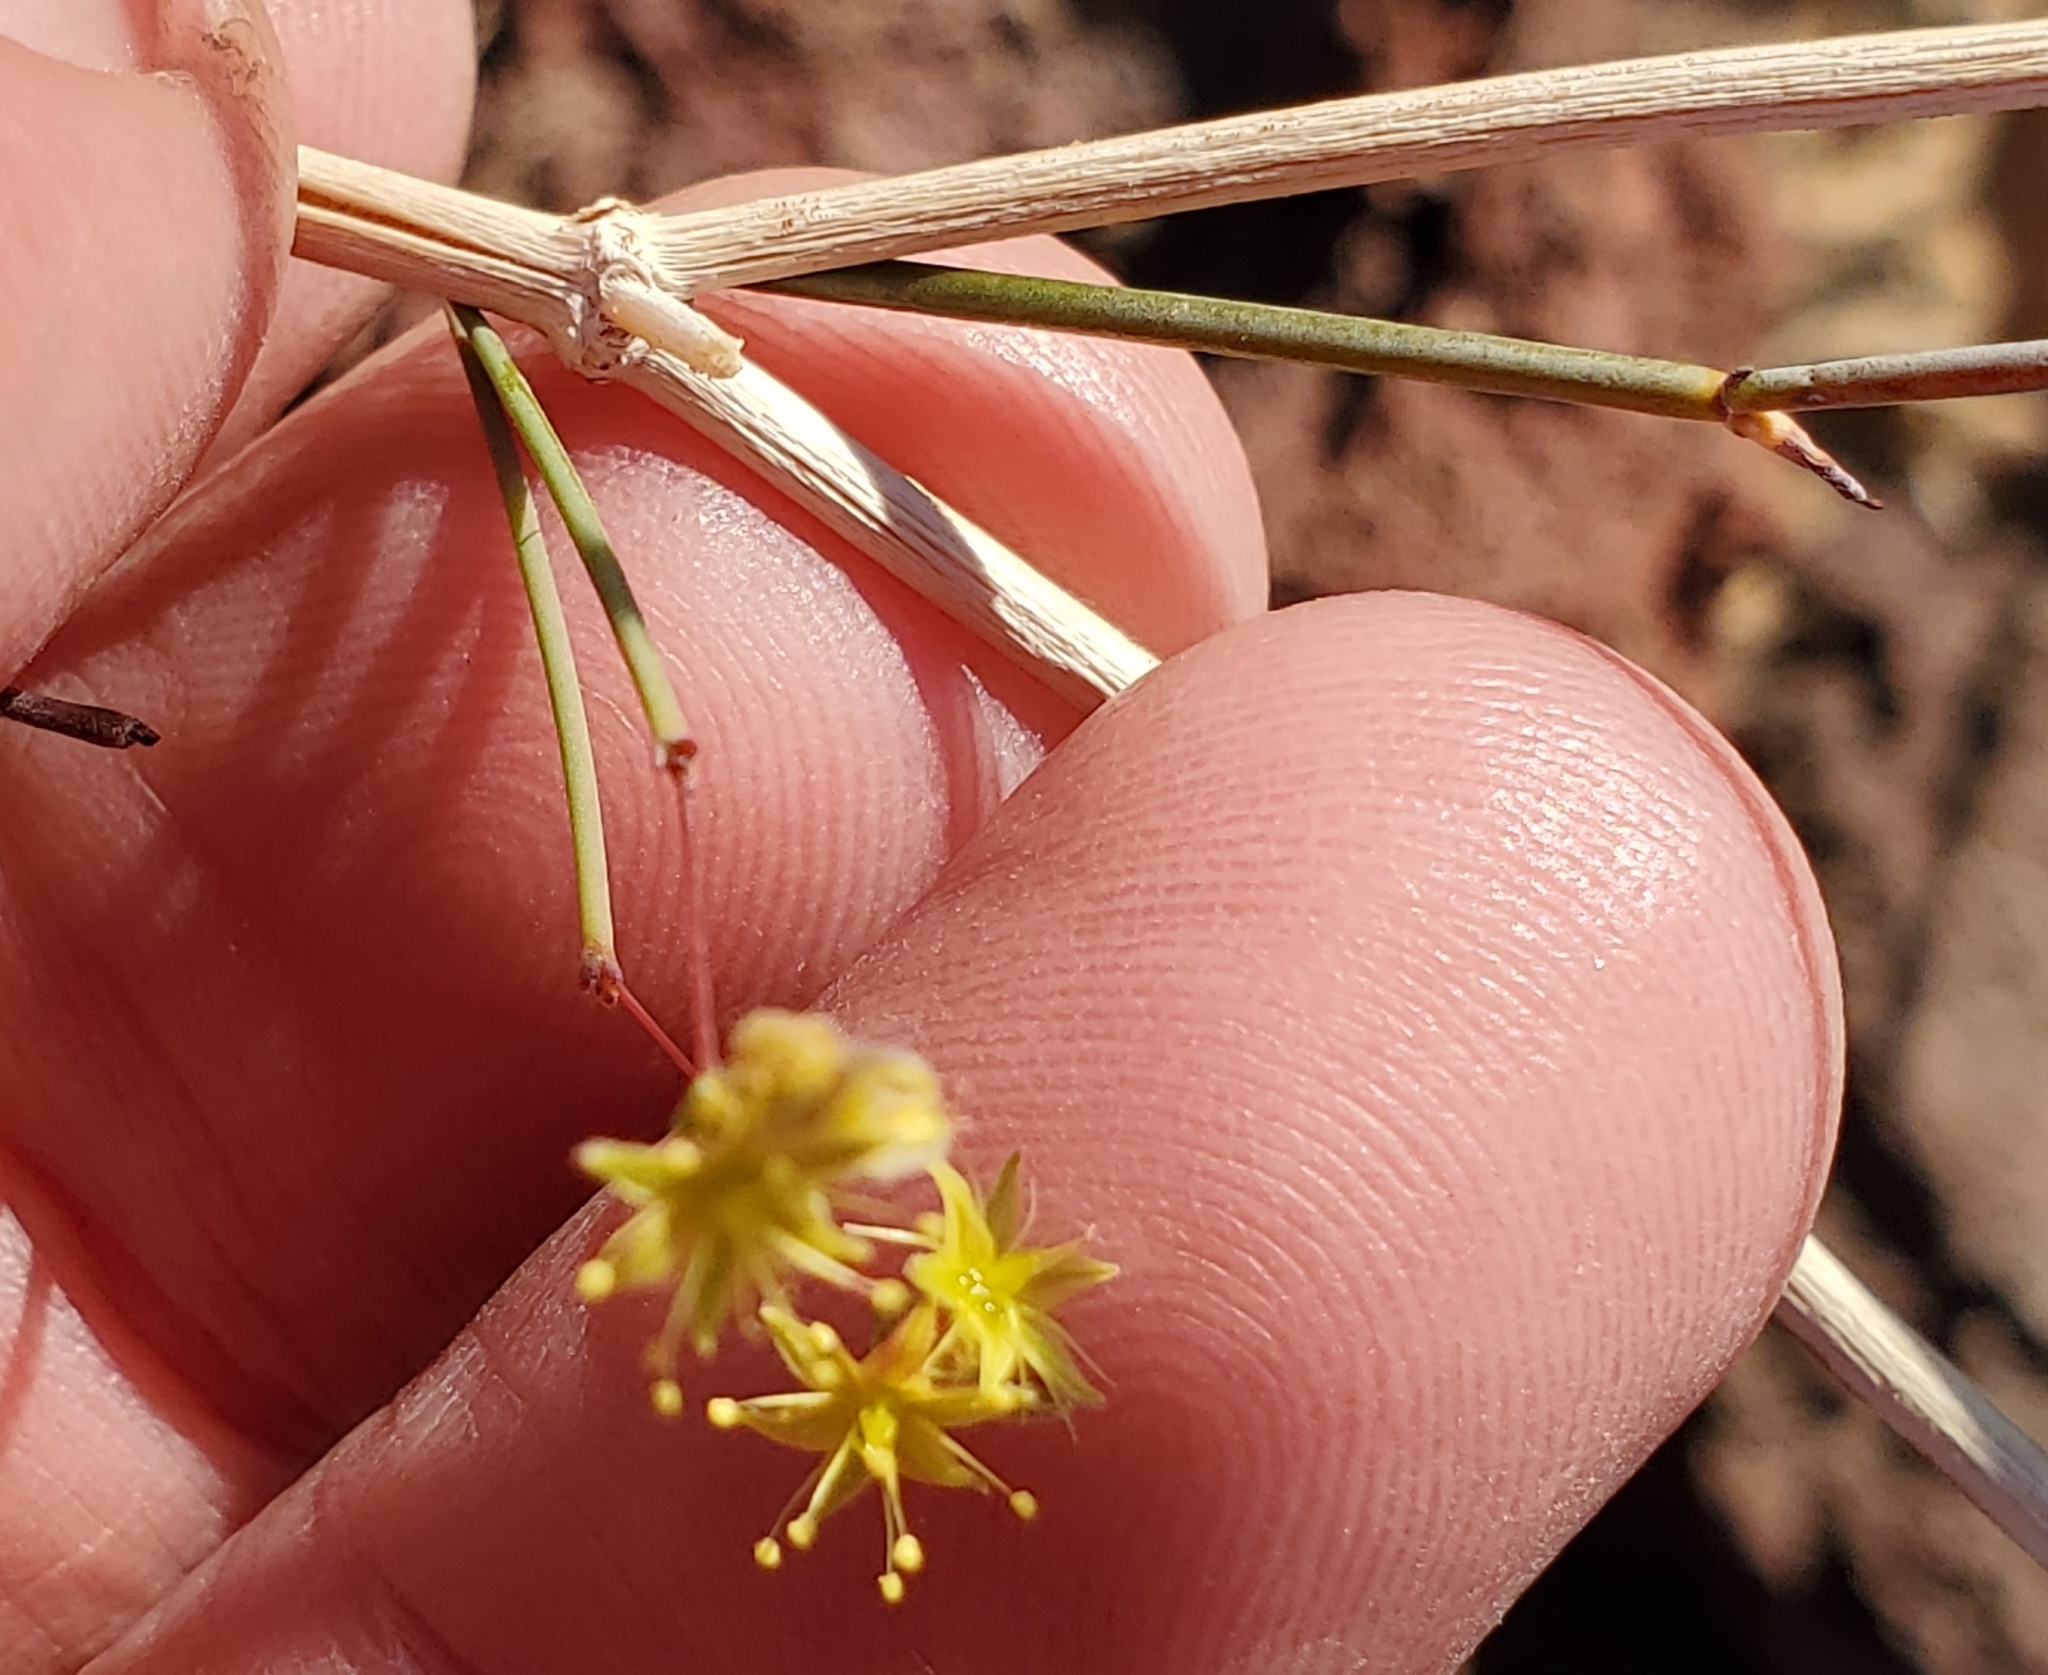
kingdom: Plantae
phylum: Tracheophyta
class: Magnoliopsida
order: Caryophyllales
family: Polygonaceae
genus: Eriogonum
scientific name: Eriogonum trichopes
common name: Little desert trumpet
